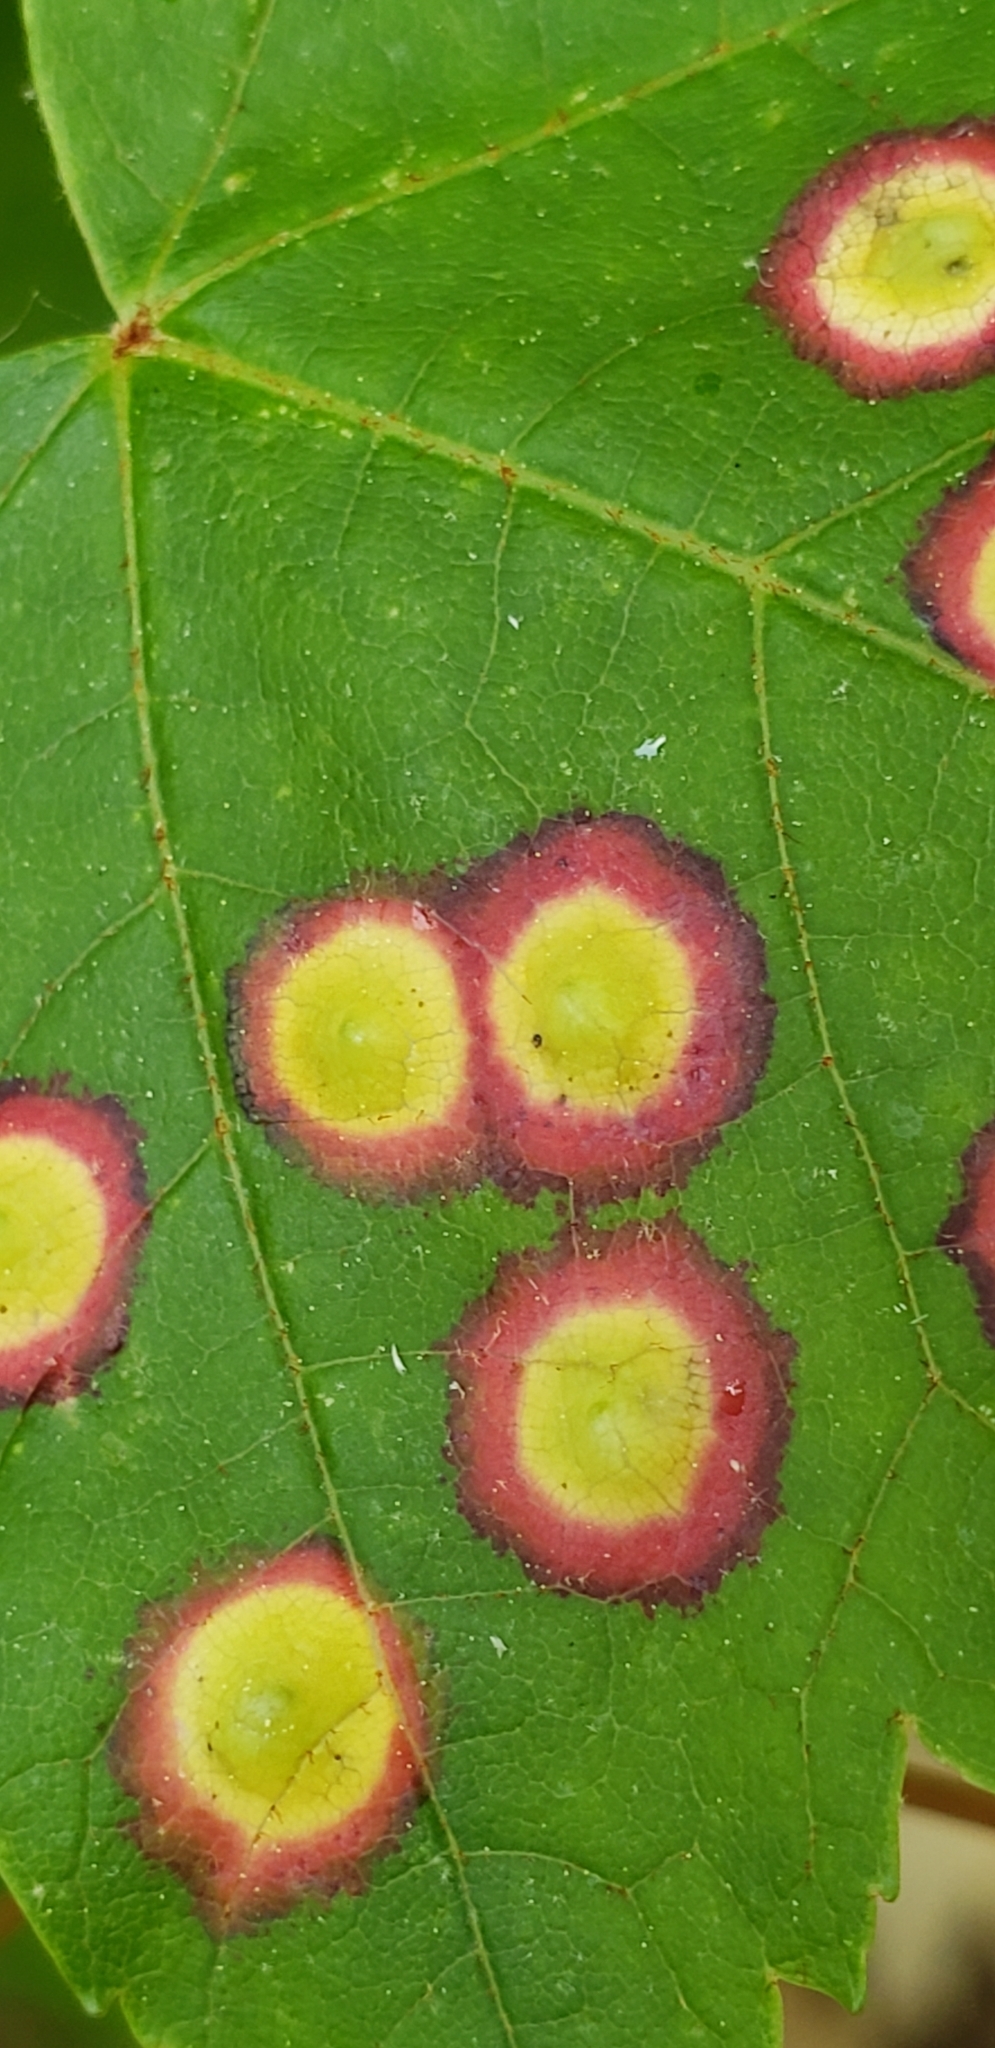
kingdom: Animalia
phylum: Arthropoda
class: Insecta
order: Diptera
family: Cecidomyiidae
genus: Acericecis
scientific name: Acericecis ocellaris
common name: Ocellate gall midge
